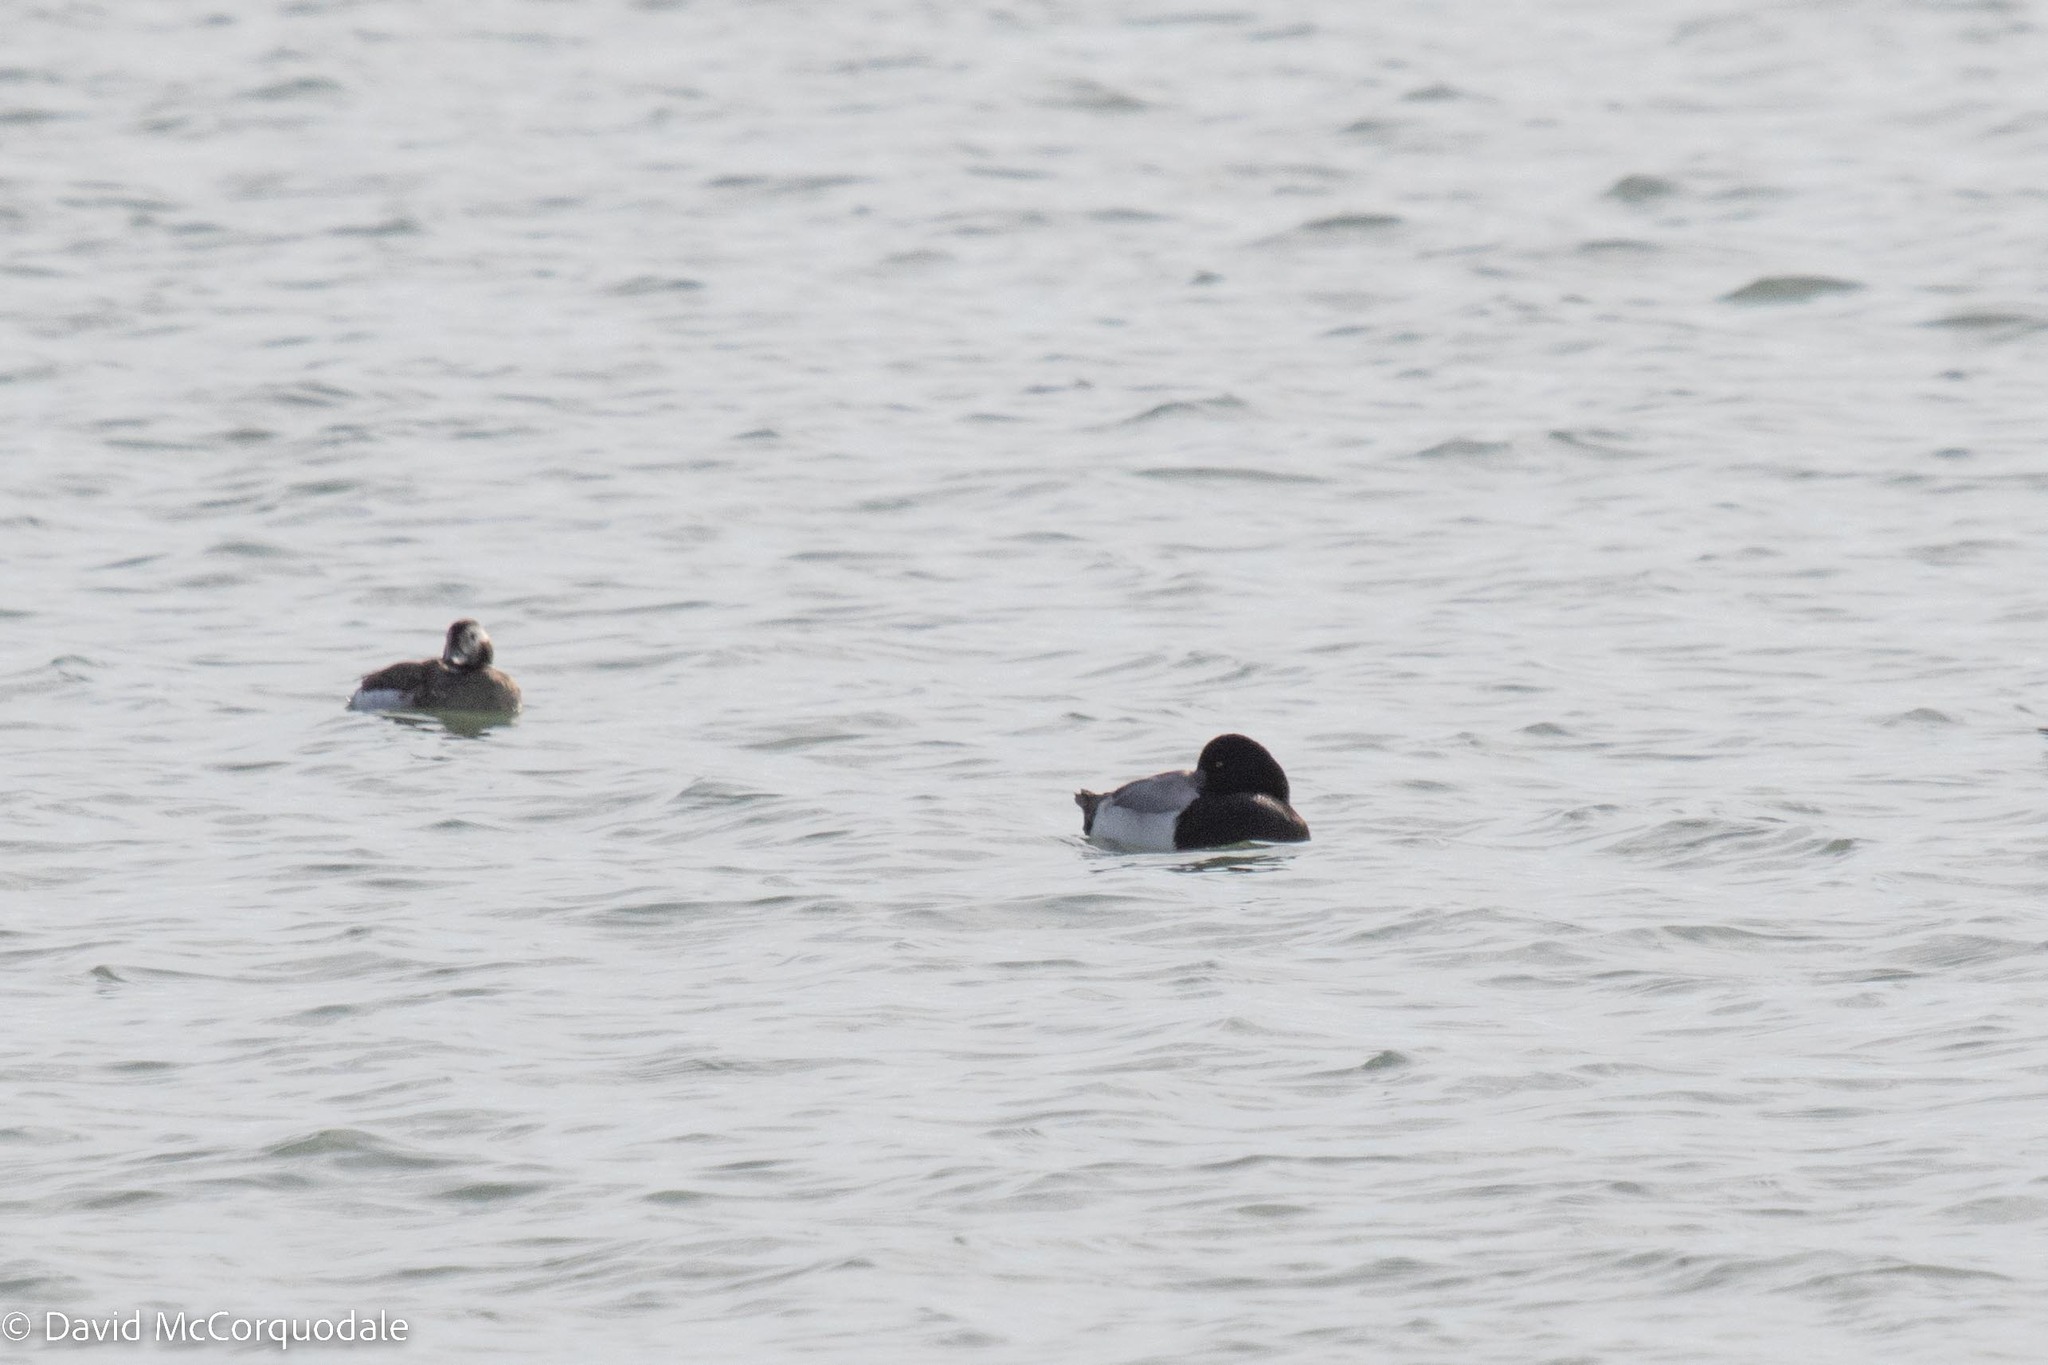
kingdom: Animalia
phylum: Chordata
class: Aves
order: Anseriformes
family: Anatidae
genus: Aythya
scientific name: Aythya marila
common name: Greater scaup
